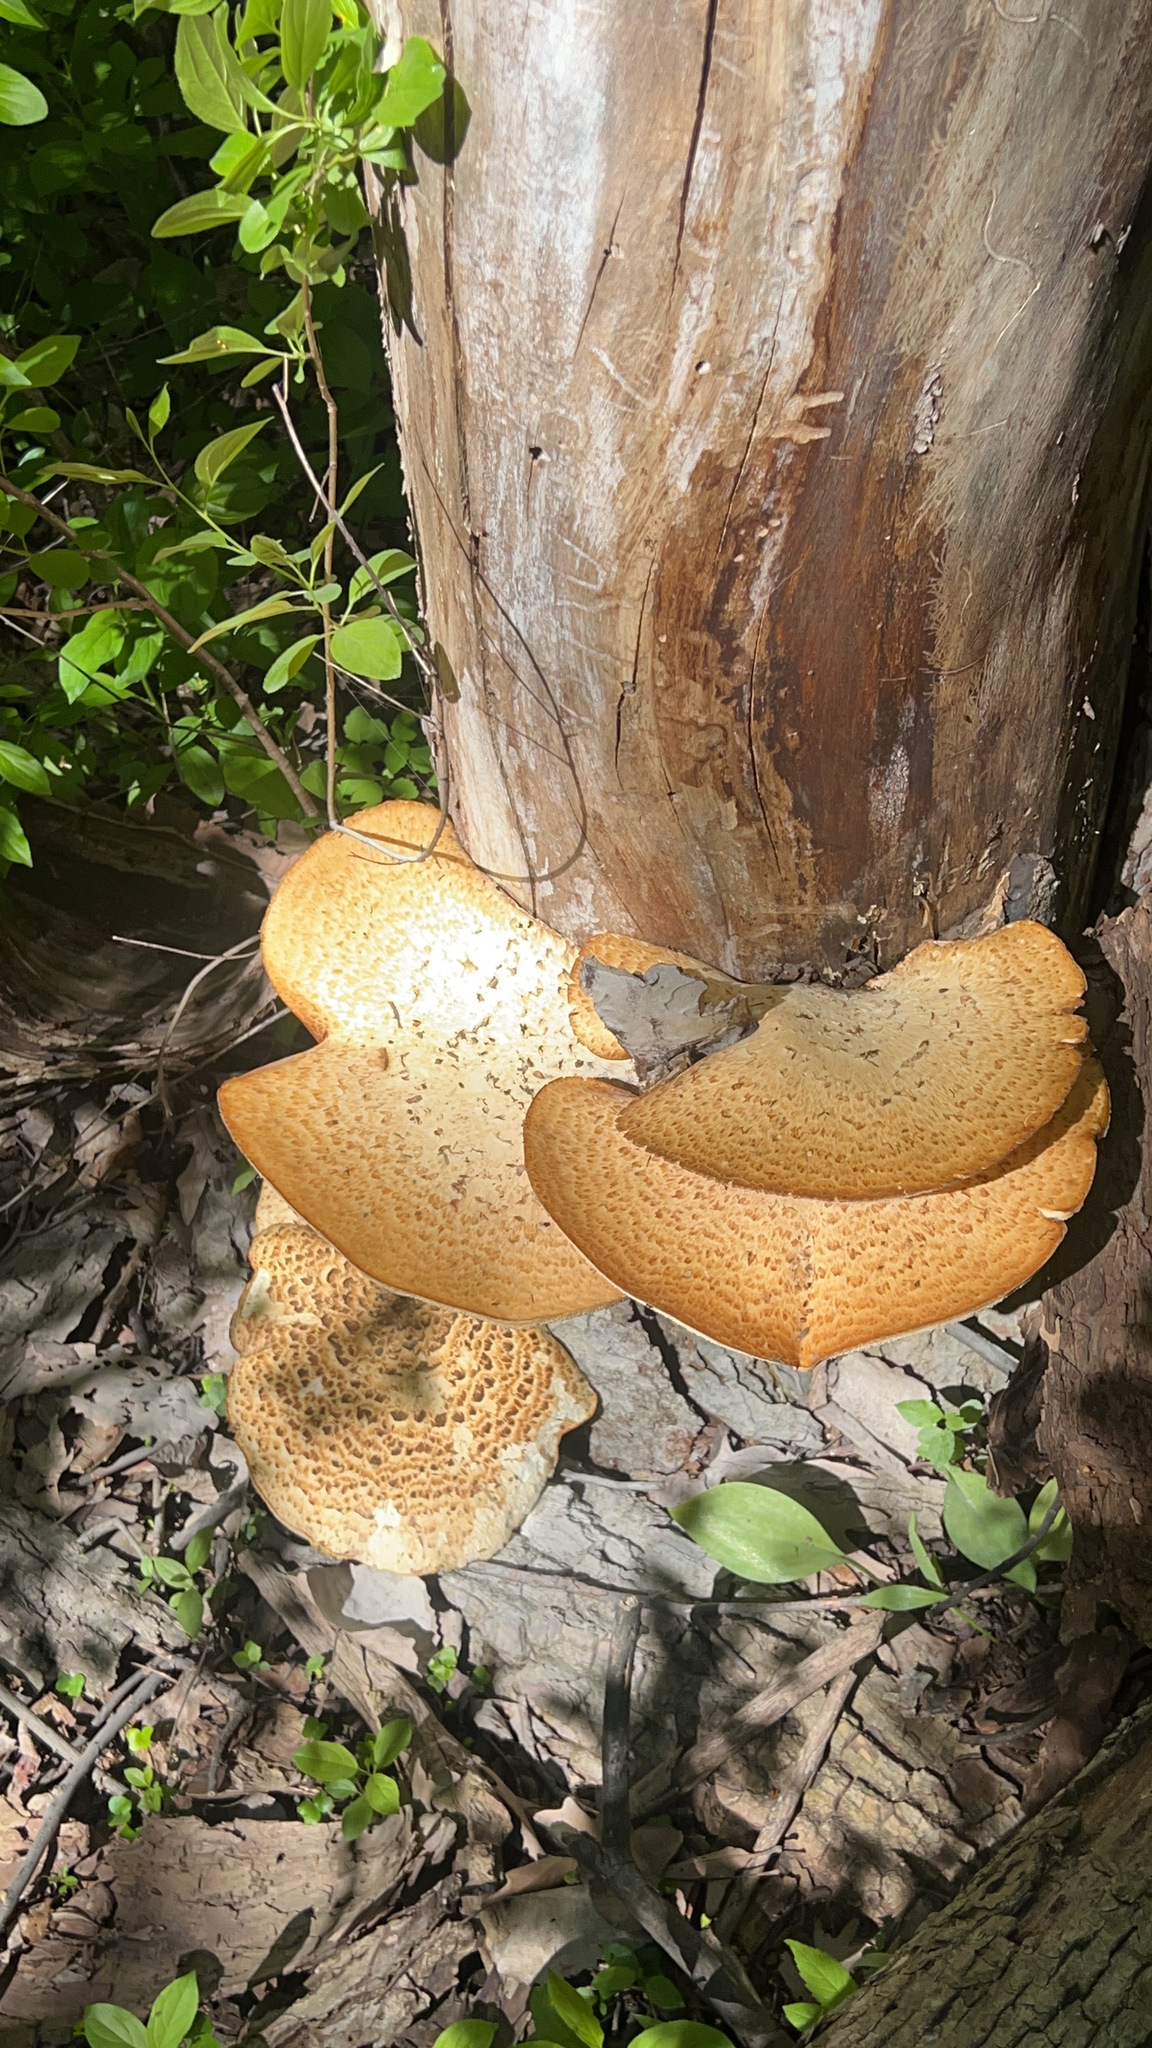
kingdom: Fungi
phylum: Basidiomycota
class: Agaricomycetes
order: Polyporales
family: Polyporaceae
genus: Cerioporus
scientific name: Cerioporus squamosus
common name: Dryad's saddle
